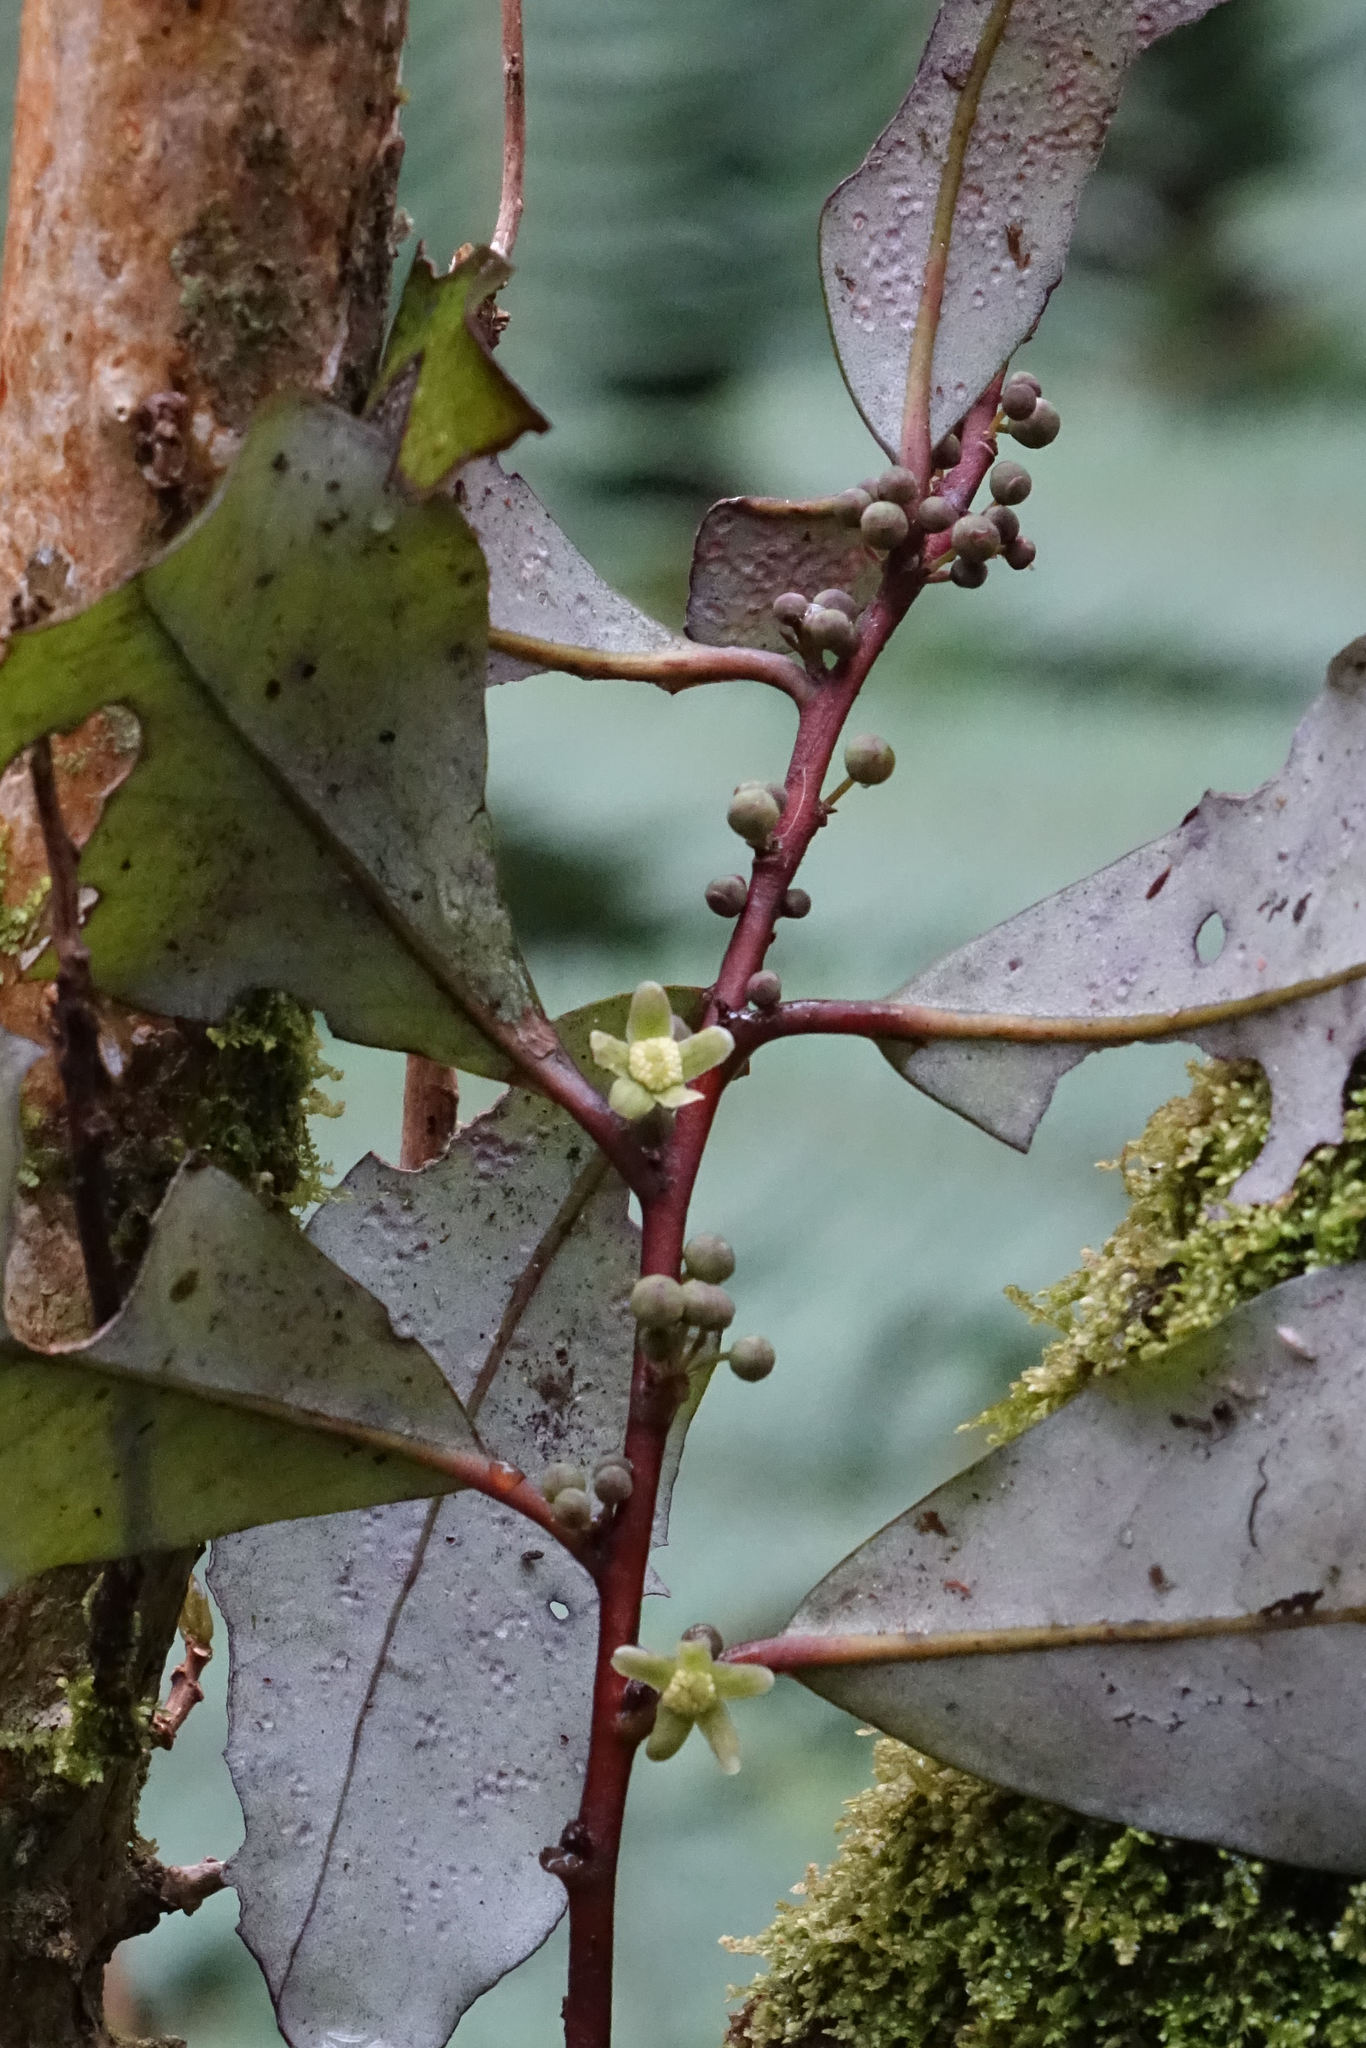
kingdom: Plantae
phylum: Tracheophyta
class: Magnoliopsida
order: Canellales
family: Winteraceae
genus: Pseudowintera
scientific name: Pseudowintera colorata
